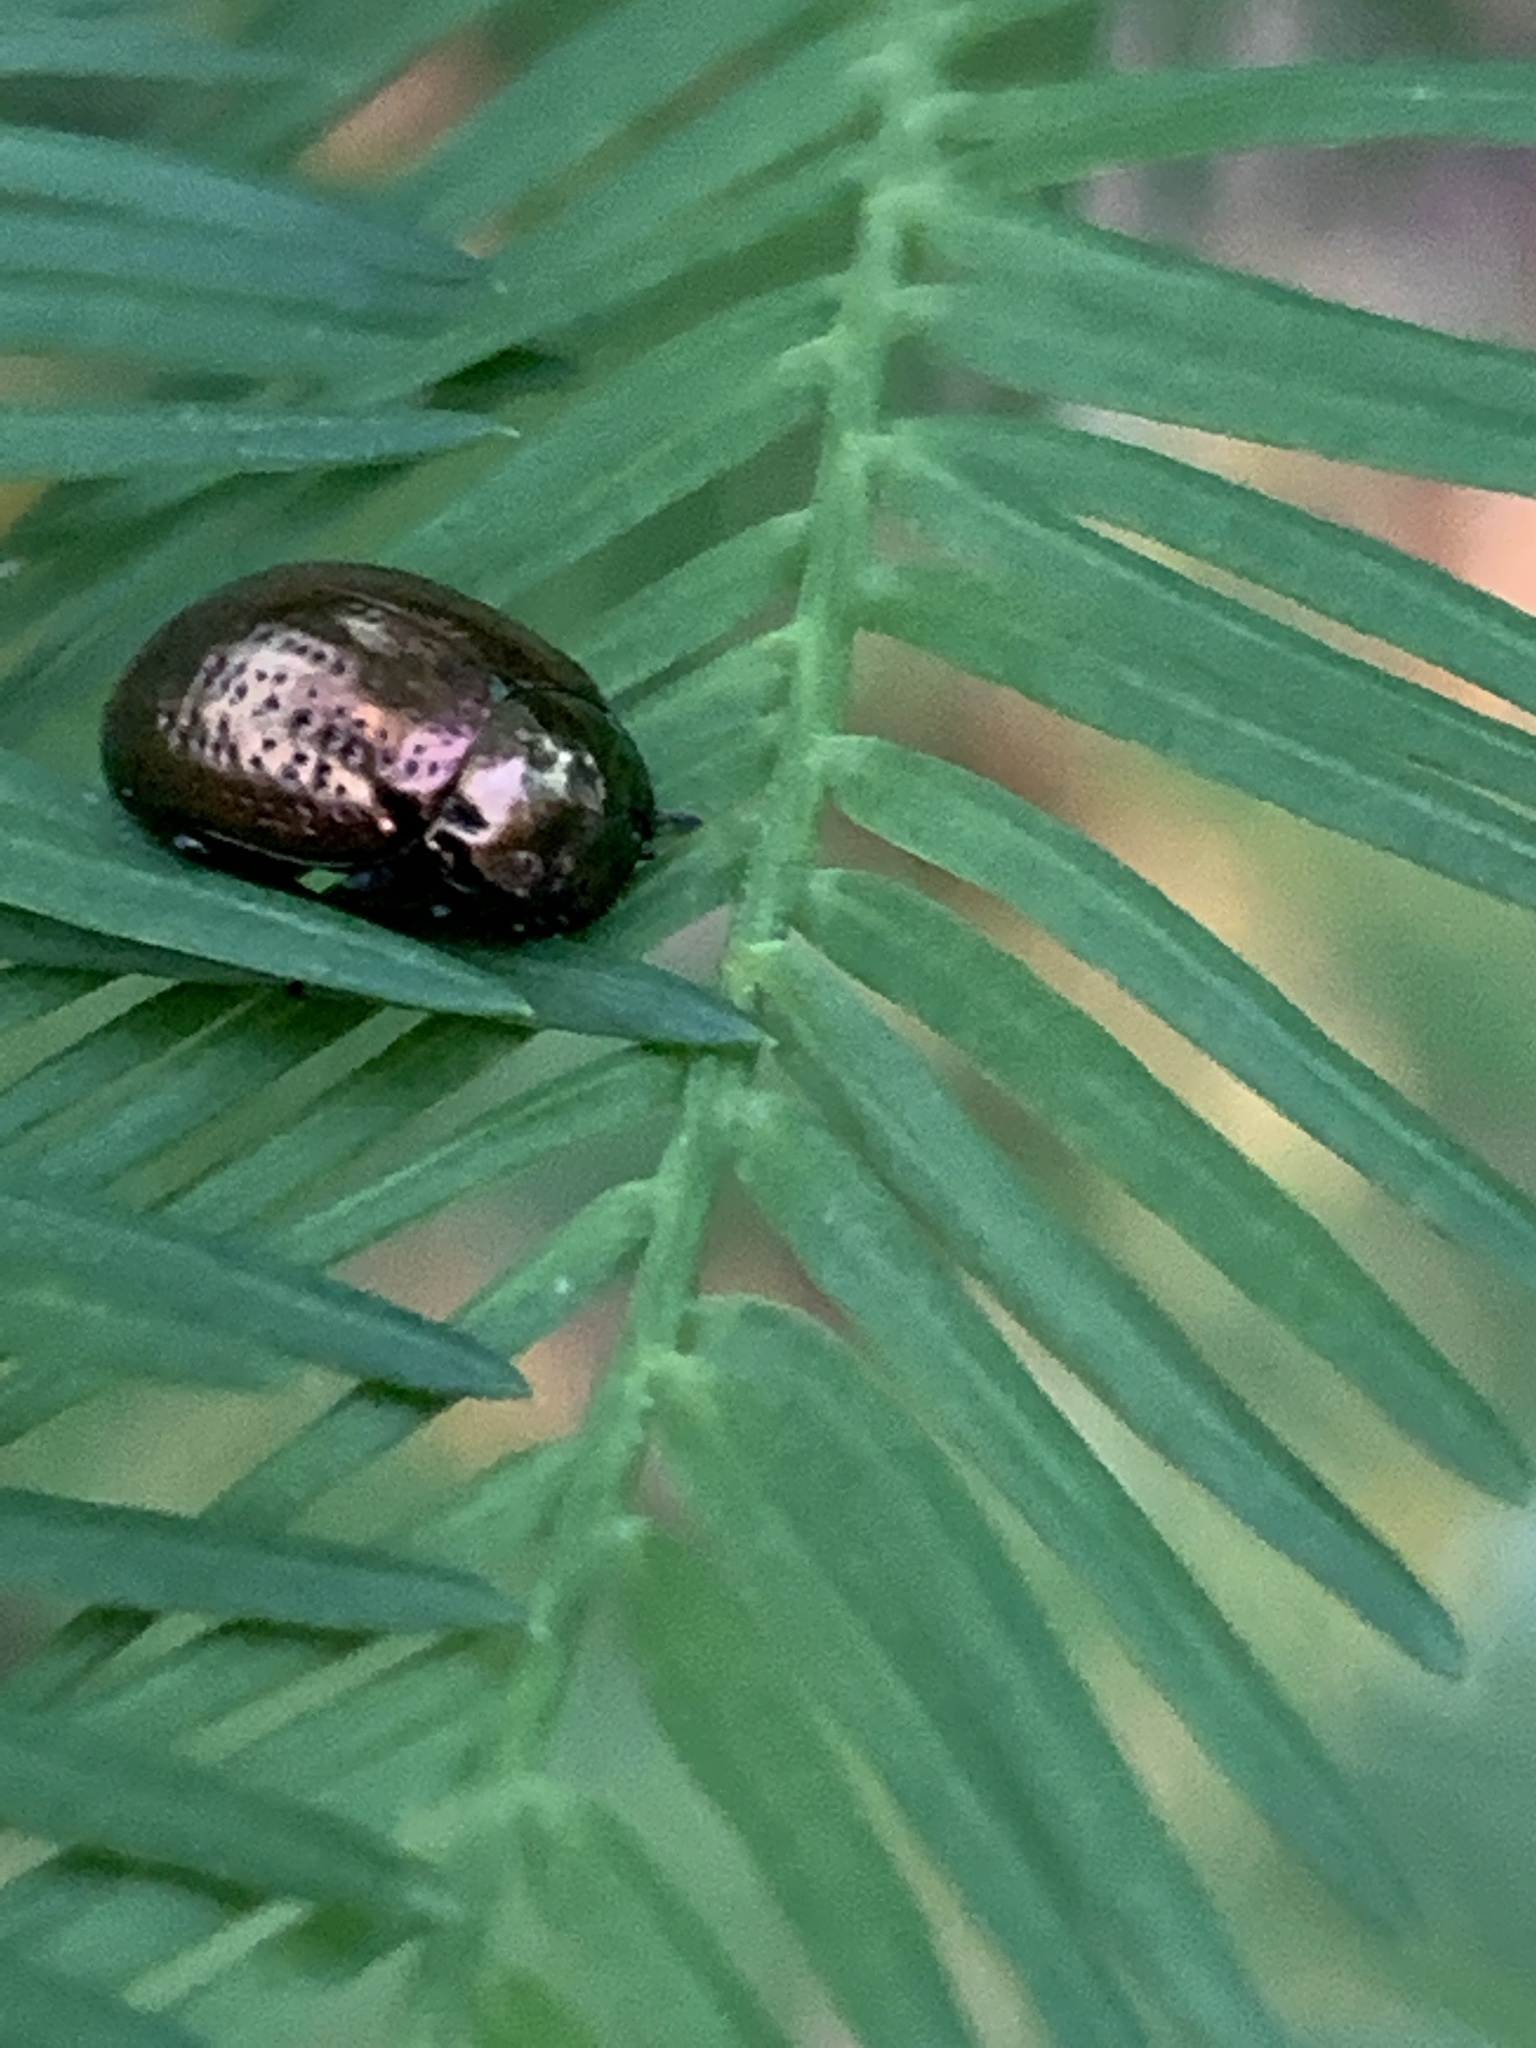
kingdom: Animalia
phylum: Arthropoda
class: Insecta
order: Coleoptera
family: Chrysomelidae
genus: Chrysolina
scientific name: Chrysolina hyperici
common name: St. johnswort beetle
